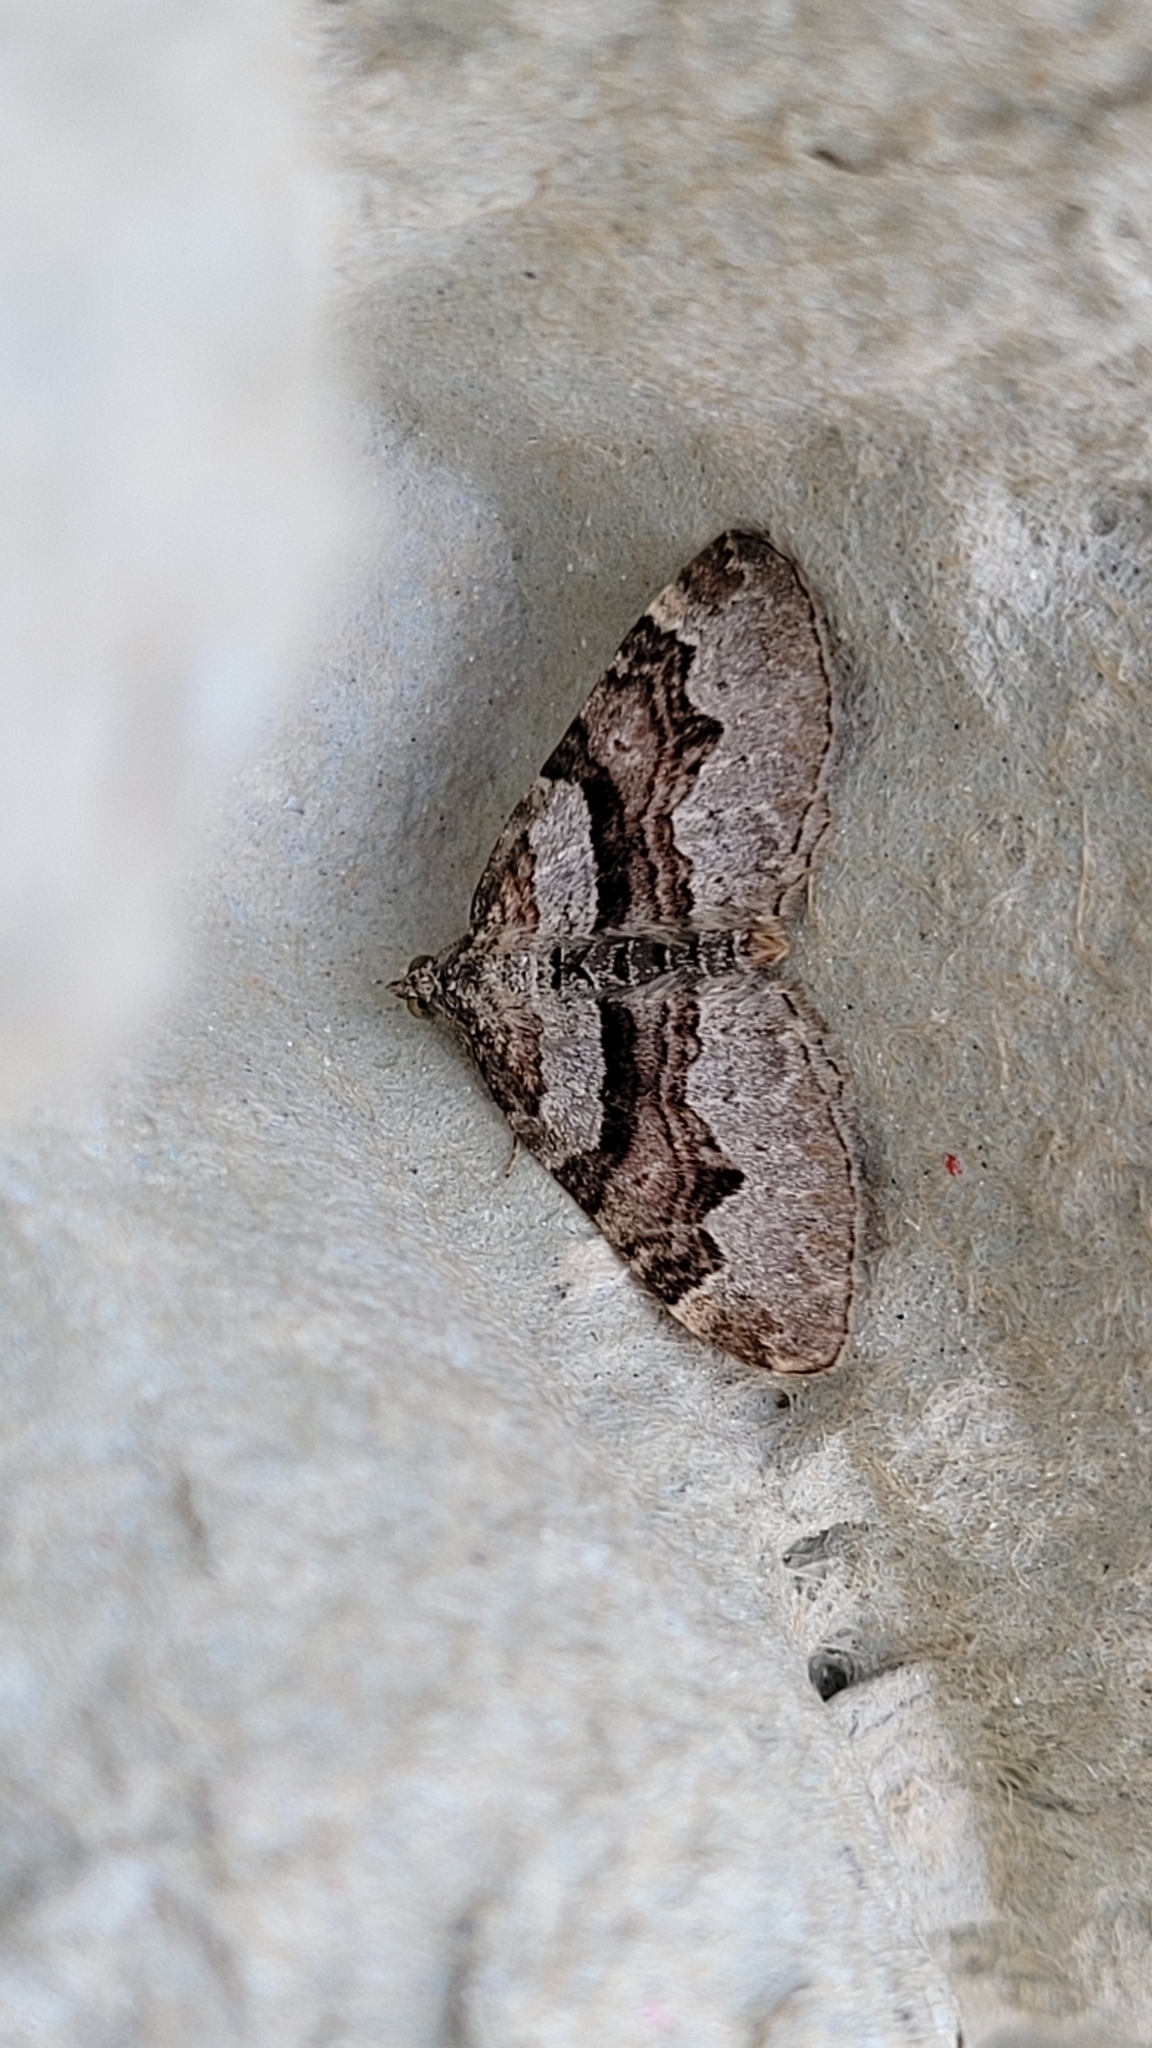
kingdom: Animalia
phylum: Arthropoda
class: Insecta
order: Lepidoptera
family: Geometridae
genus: Xanthorhoe
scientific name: Xanthorhoe designata
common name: Flame carpet
